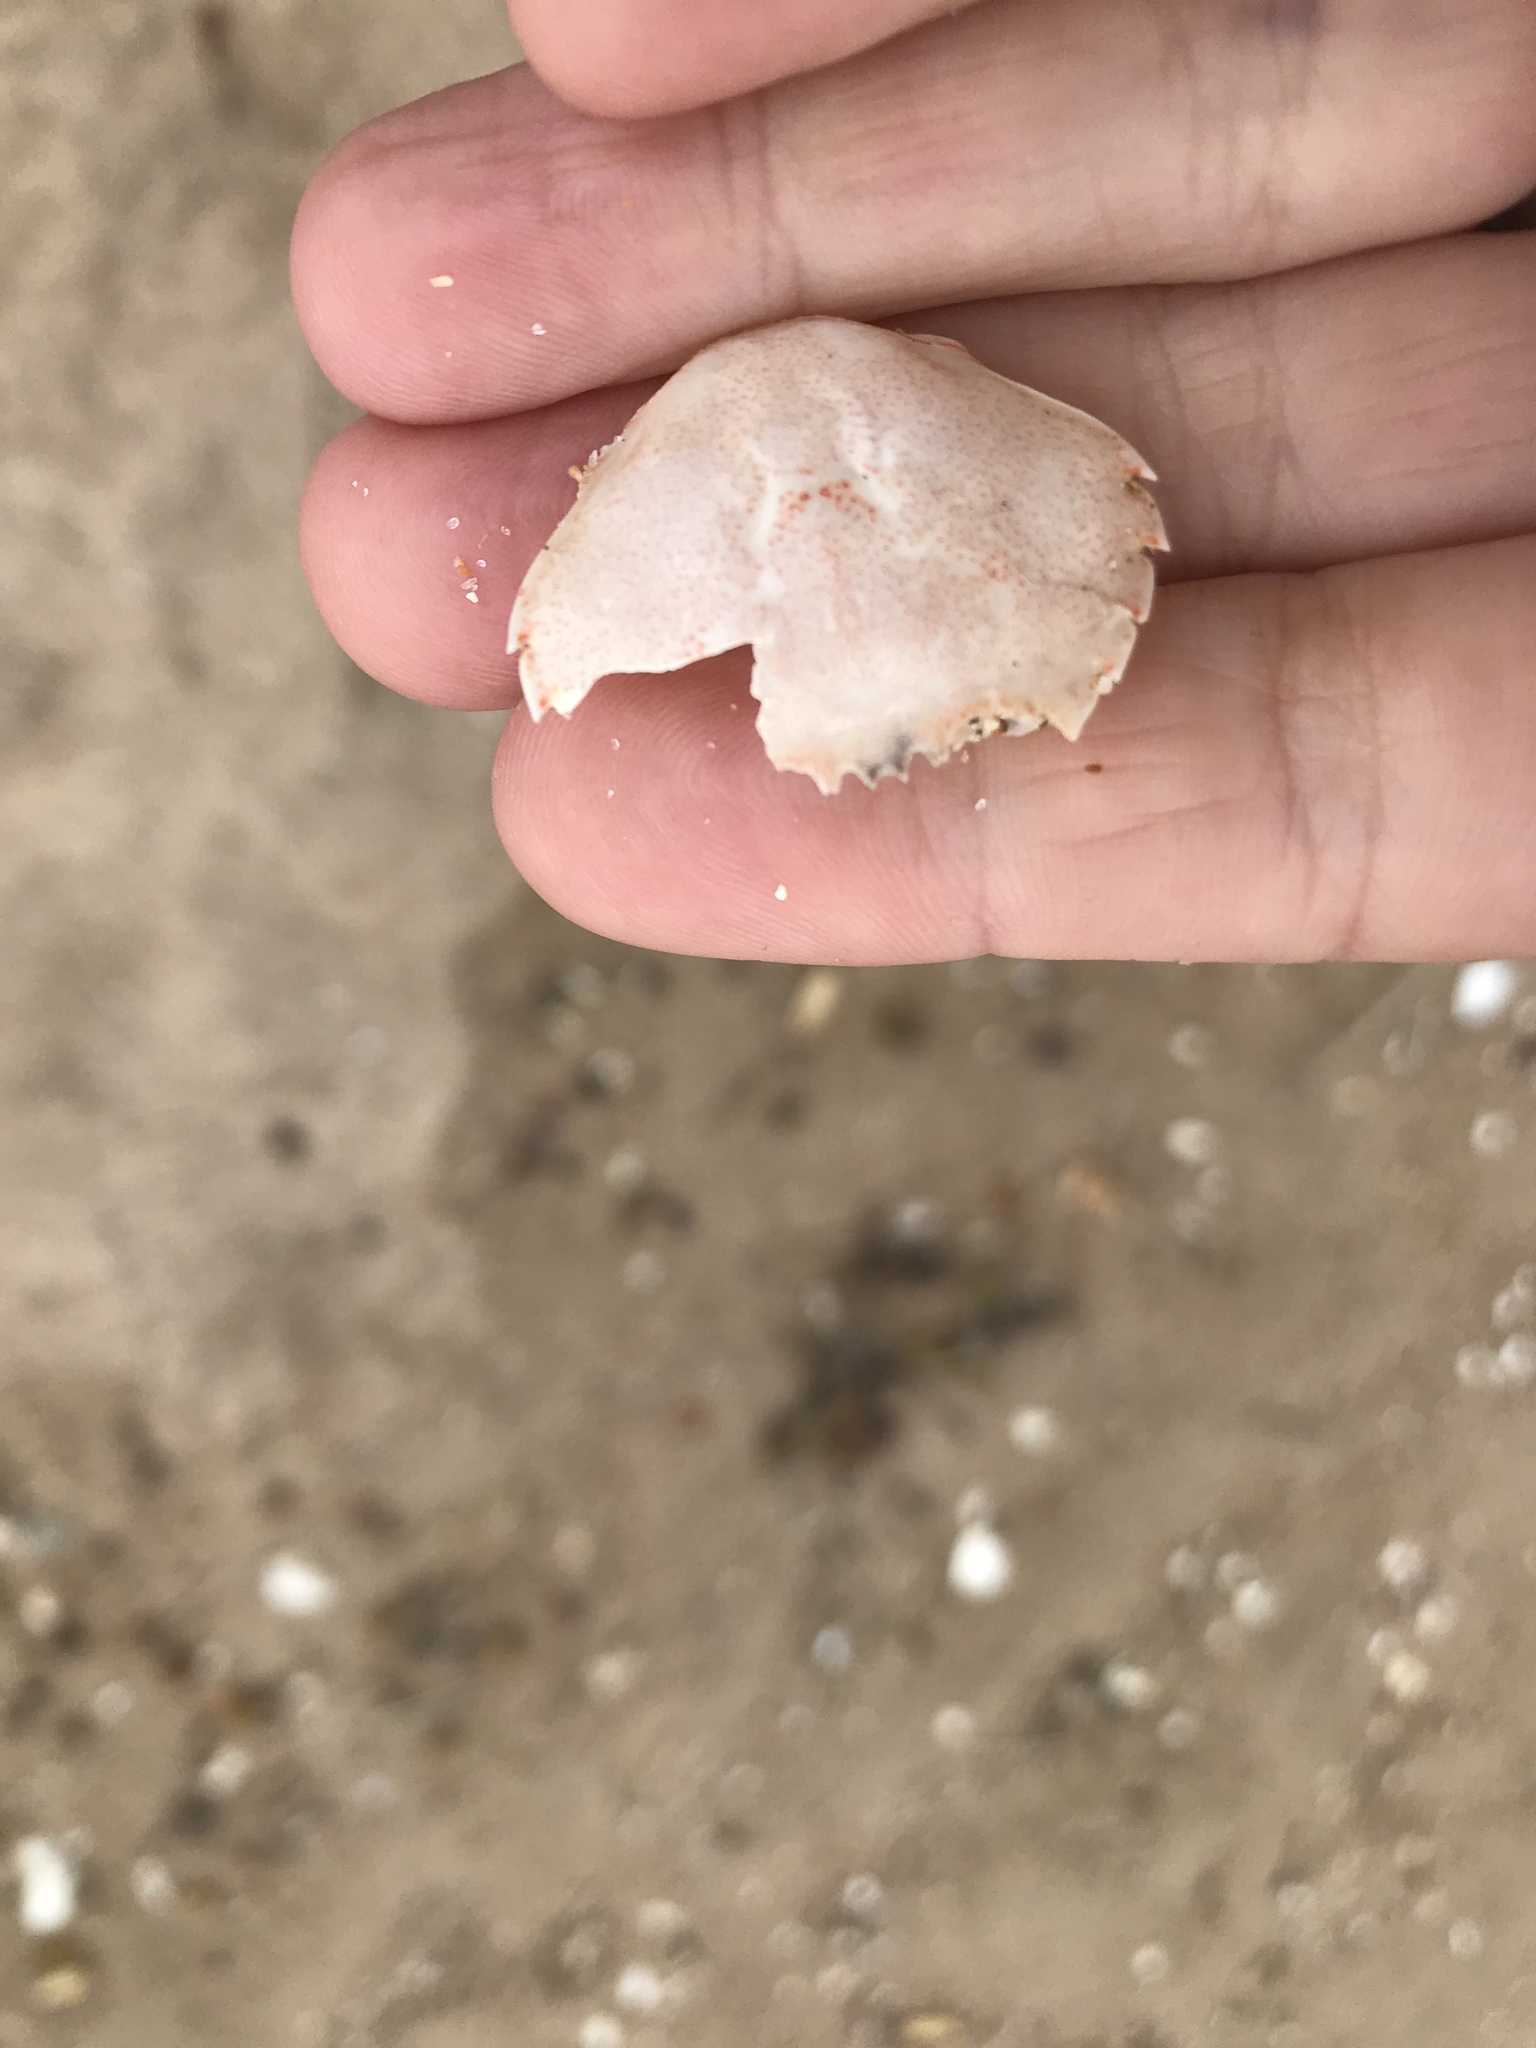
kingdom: Animalia
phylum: Arthropoda
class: Malacostraca
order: Decapoda
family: Ovalipidae
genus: Ovalipes
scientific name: Ovalipes catharus
